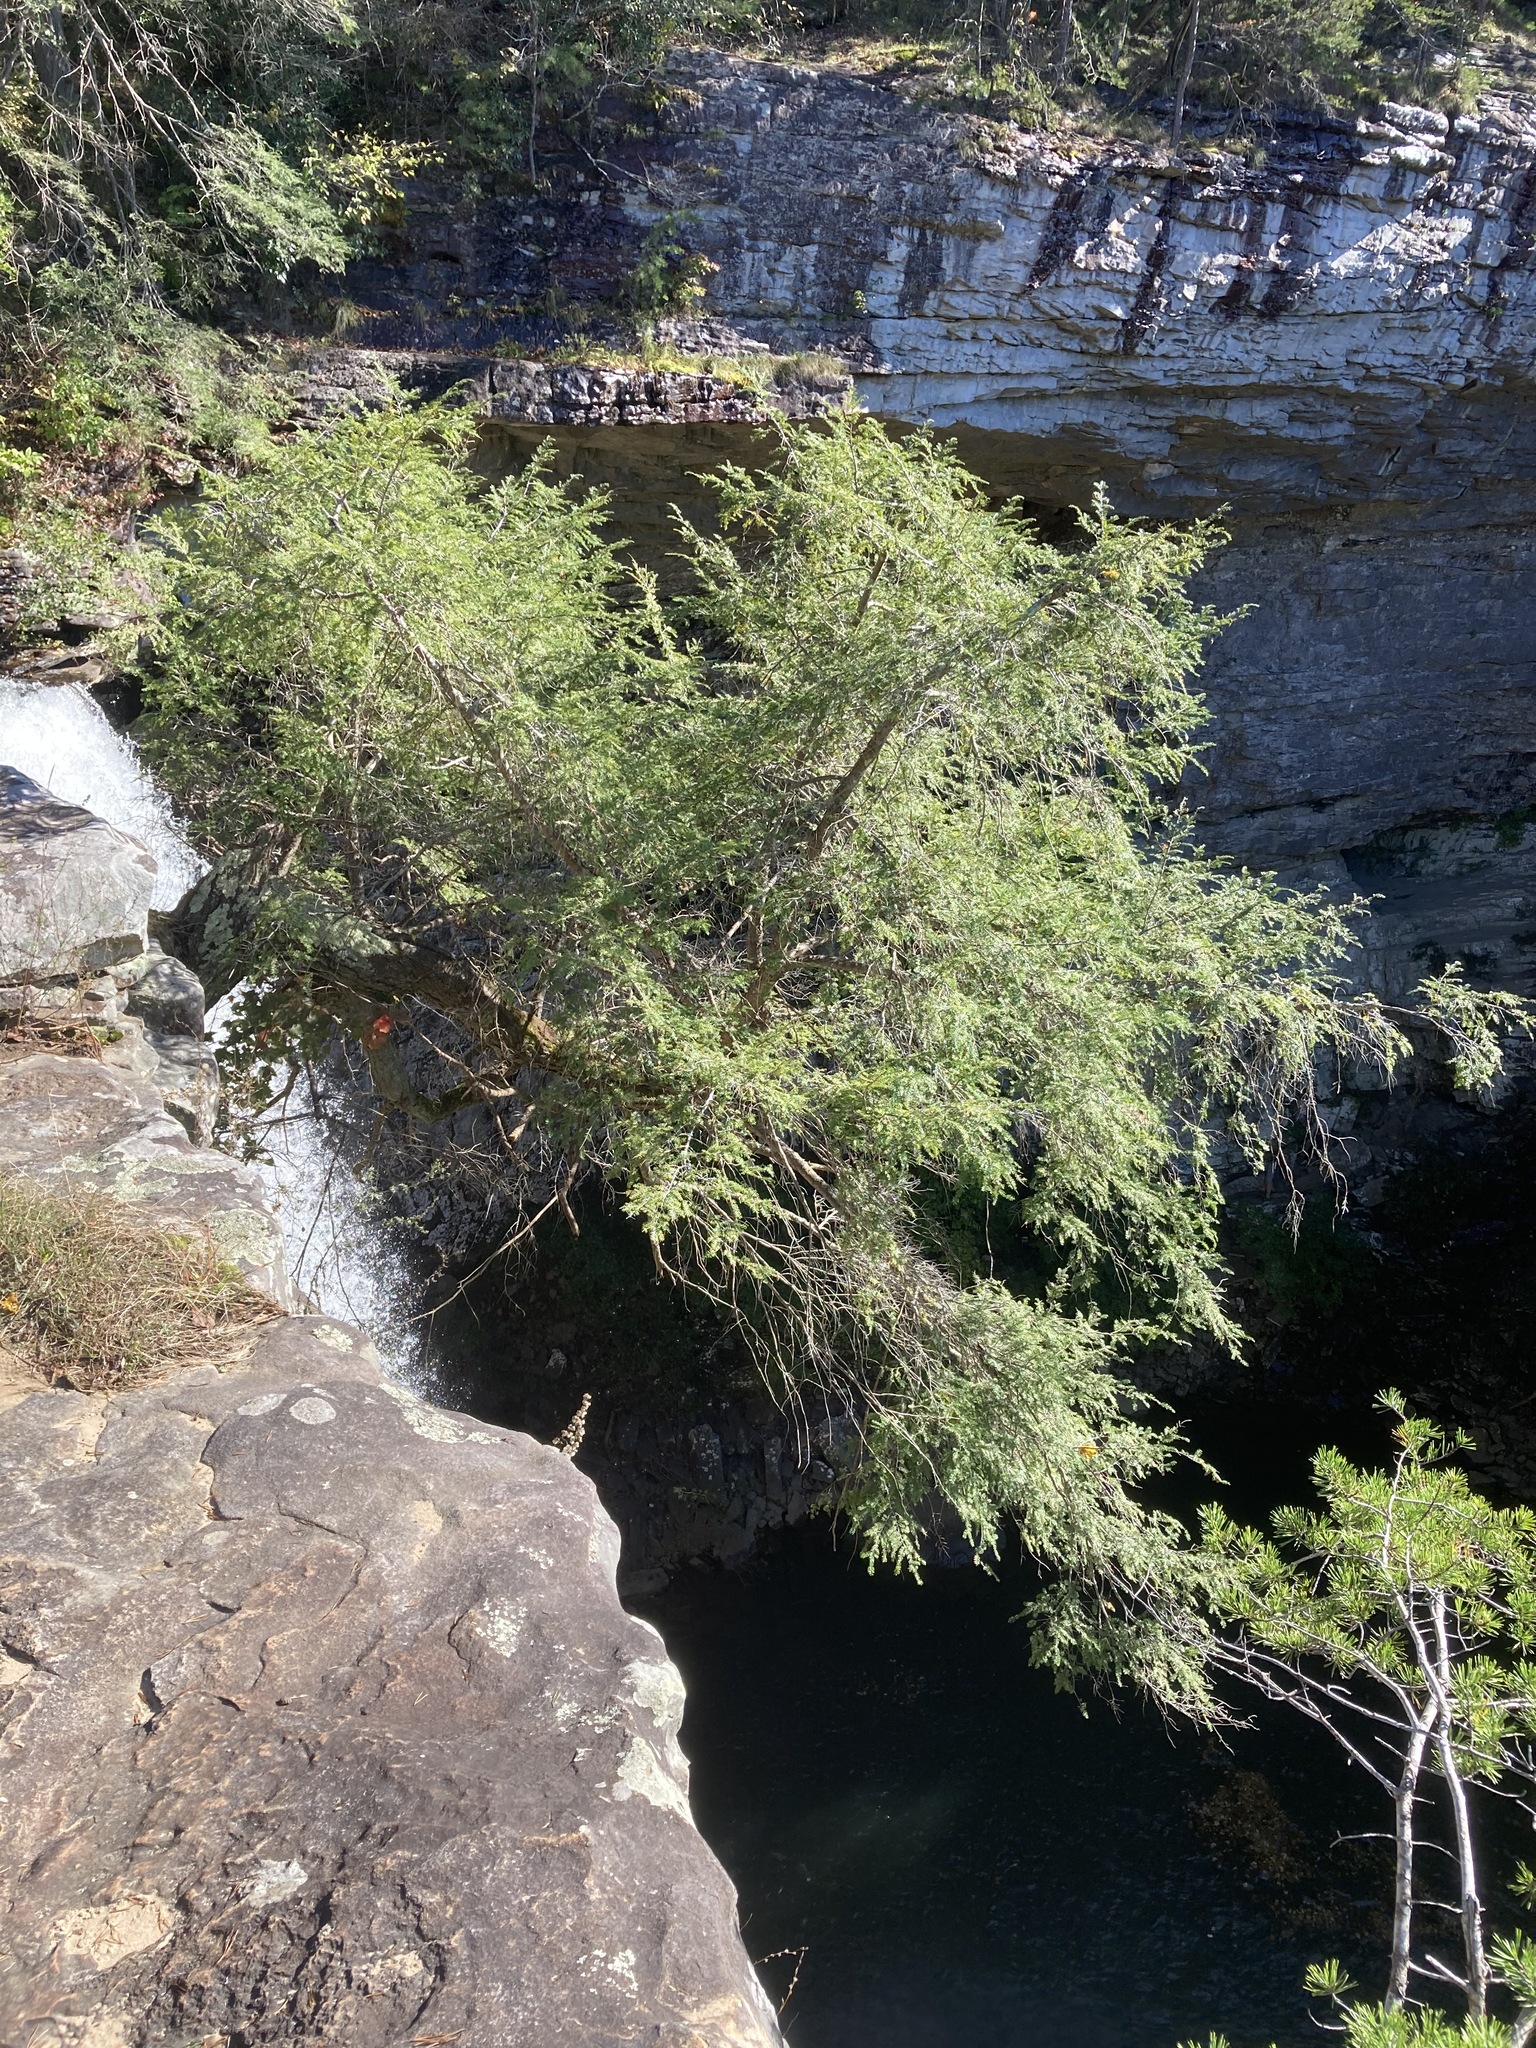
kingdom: Plantae
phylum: Tracheophyta
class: Pinopsida
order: Pinales
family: Pinaceae
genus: Tsuga
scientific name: Tsuga canadensis
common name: Eastern hemlock
